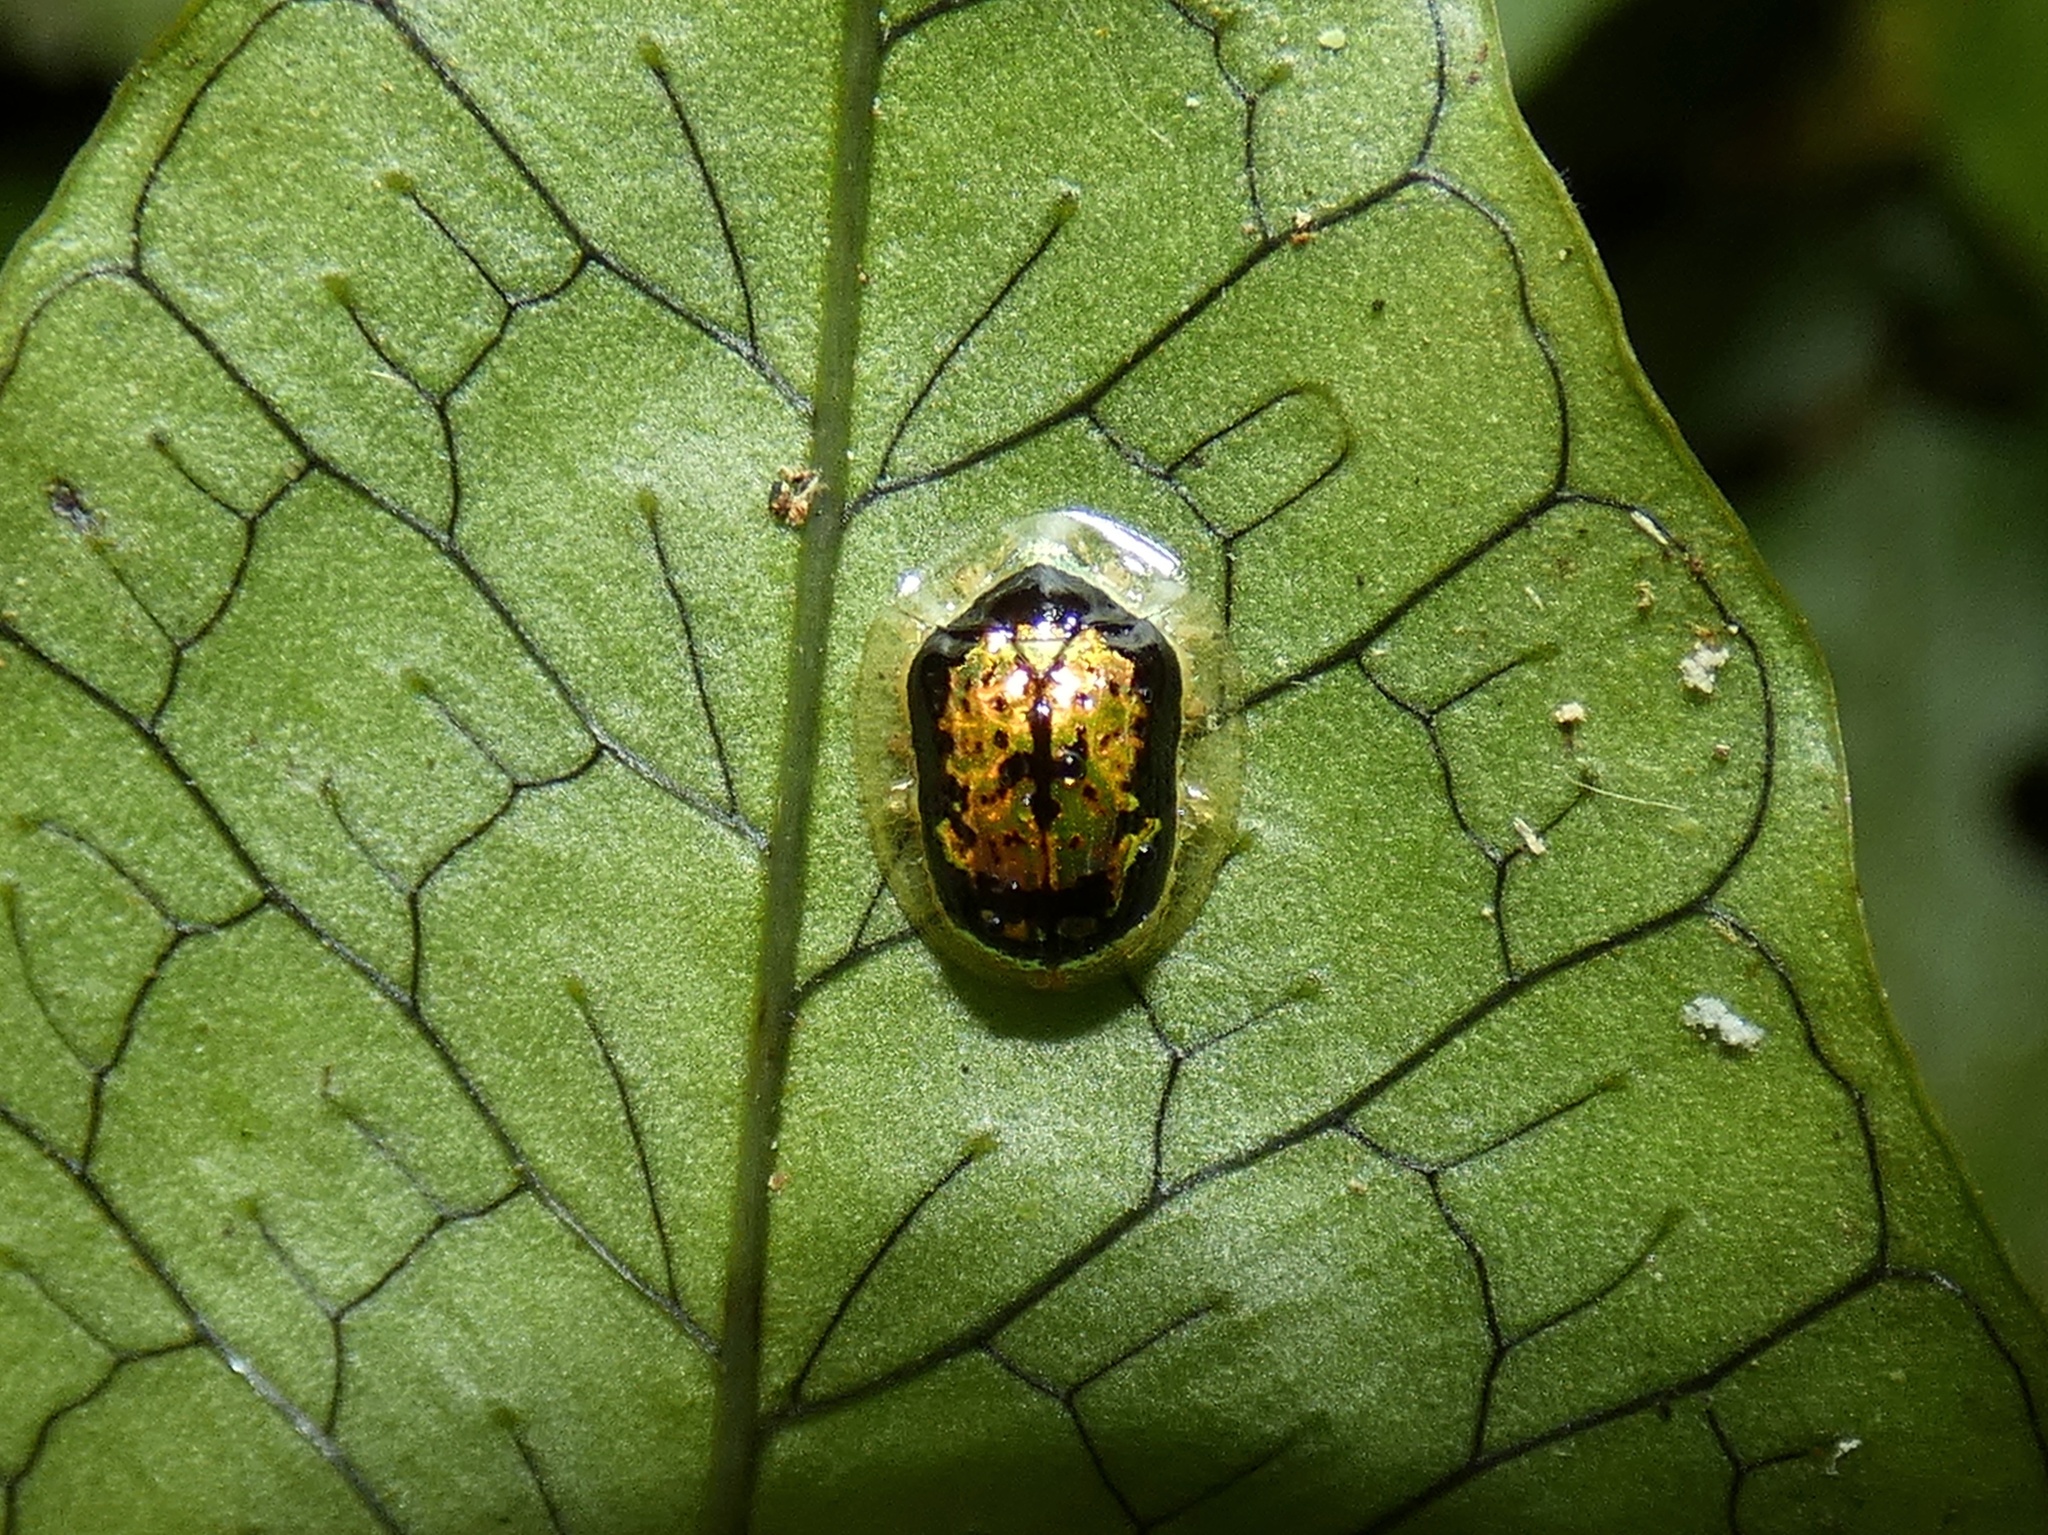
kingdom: Animalia
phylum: Arthropoda
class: Insecta
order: Coleoptera
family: Chrysomelidae
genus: Microctenochira
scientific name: Microctenochira nigrocincta
